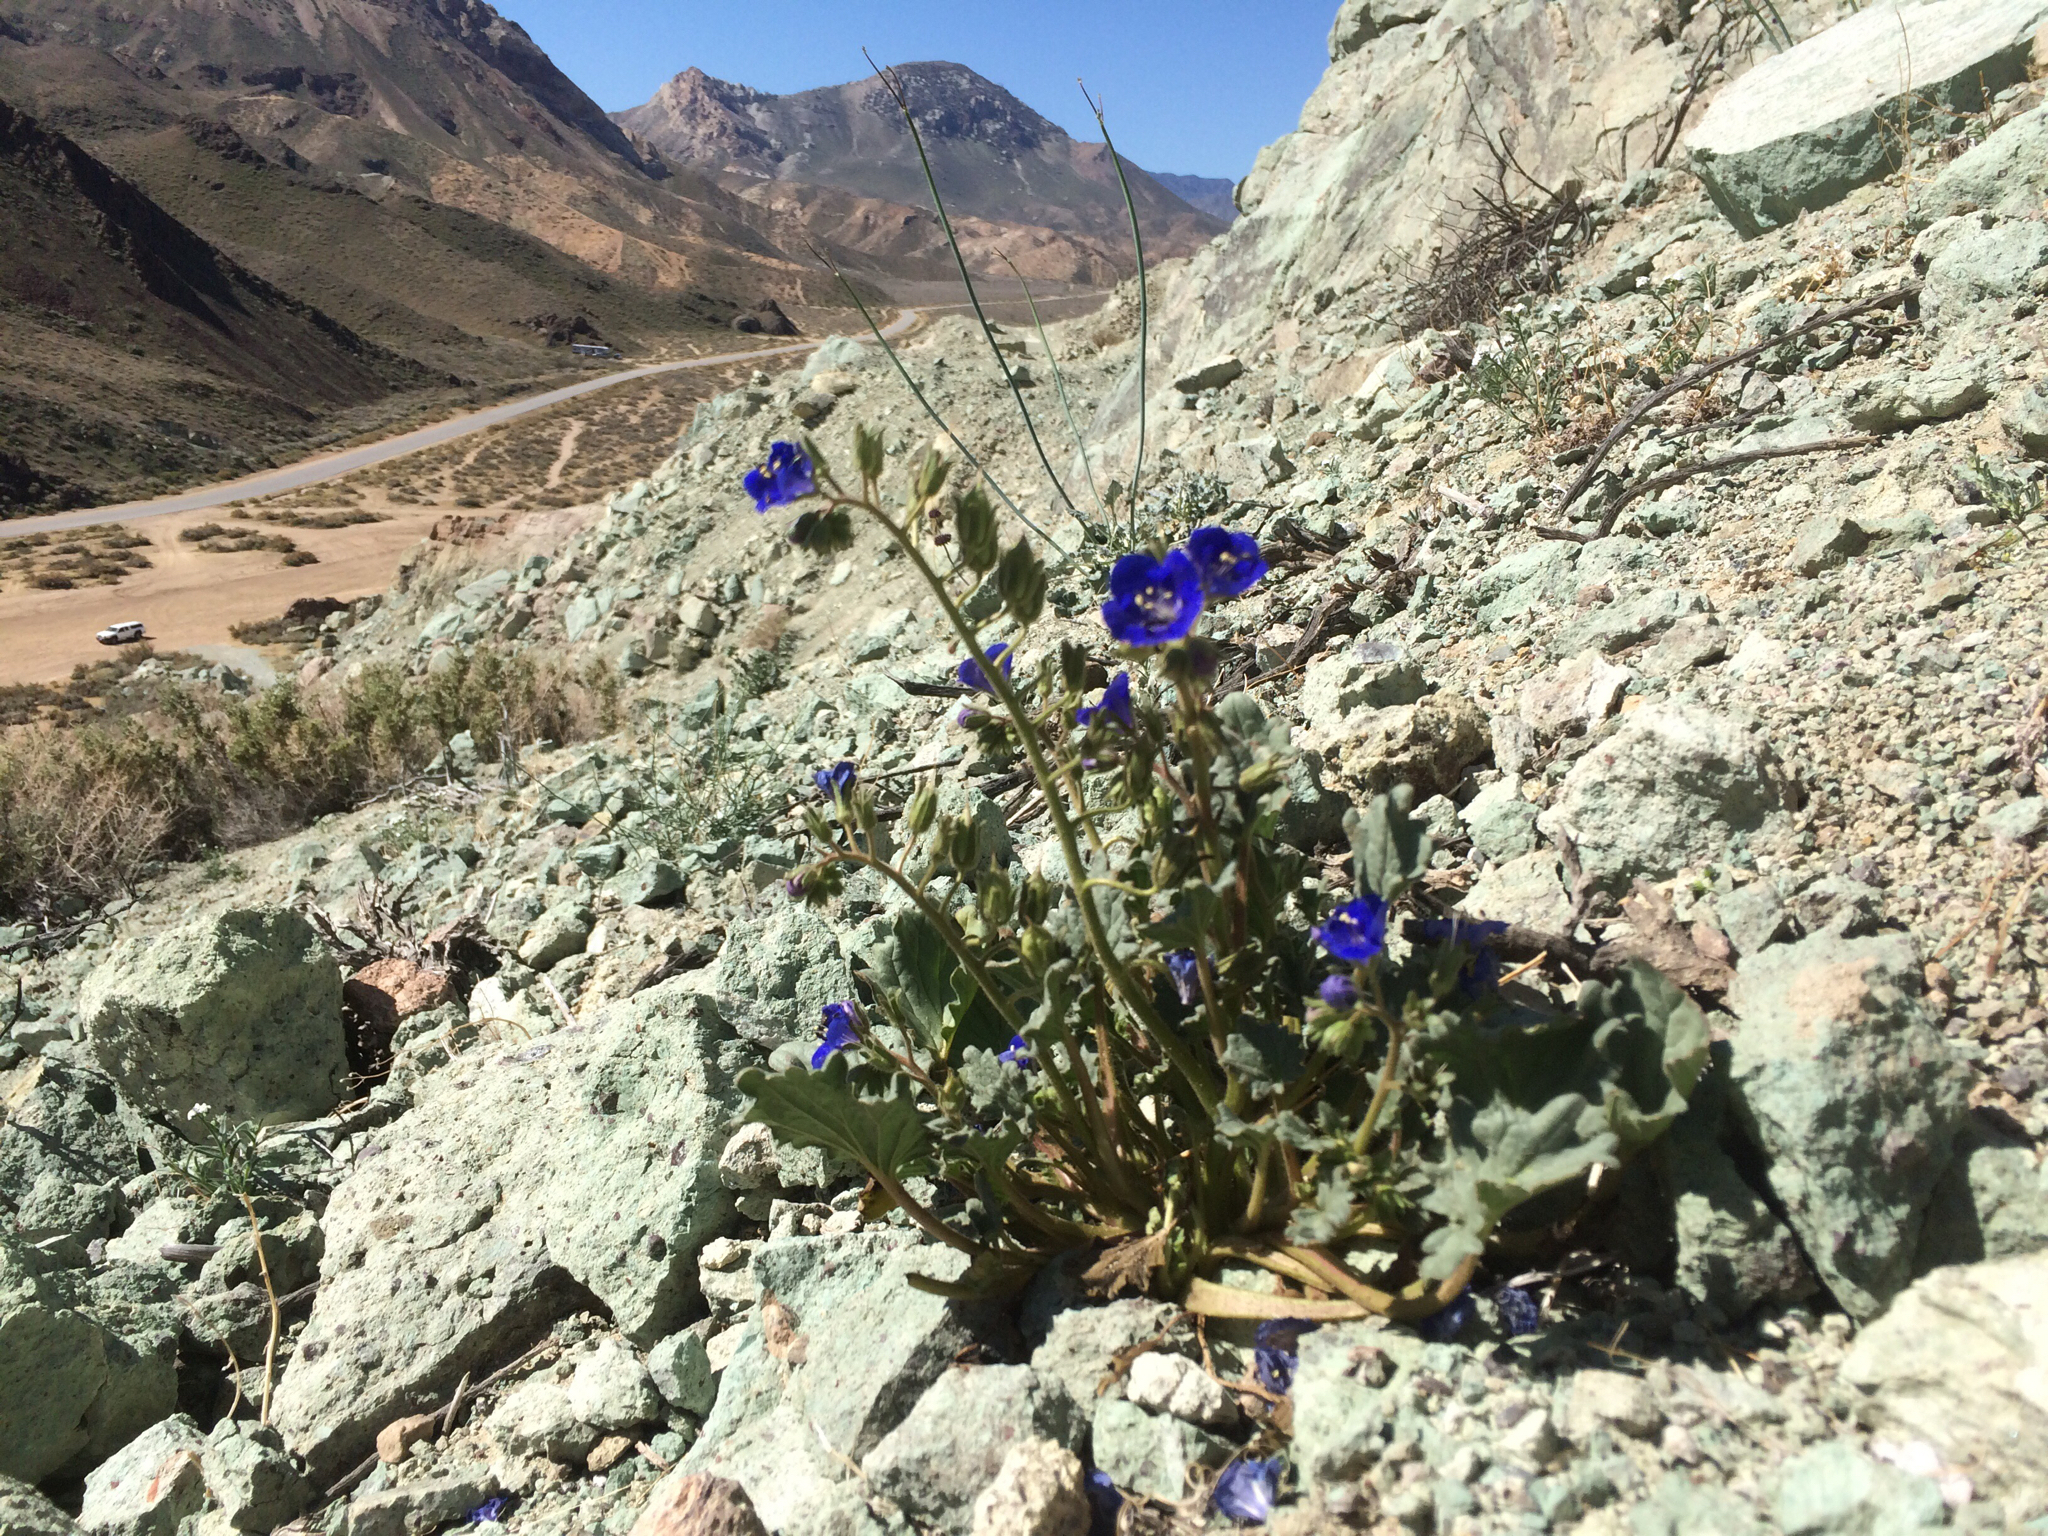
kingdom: Plantae
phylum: Tracheophyta
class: Magnoliopsida
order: Boraginales
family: Hydrophyllaceae
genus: Phacelia
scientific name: Phacelia nashiana
